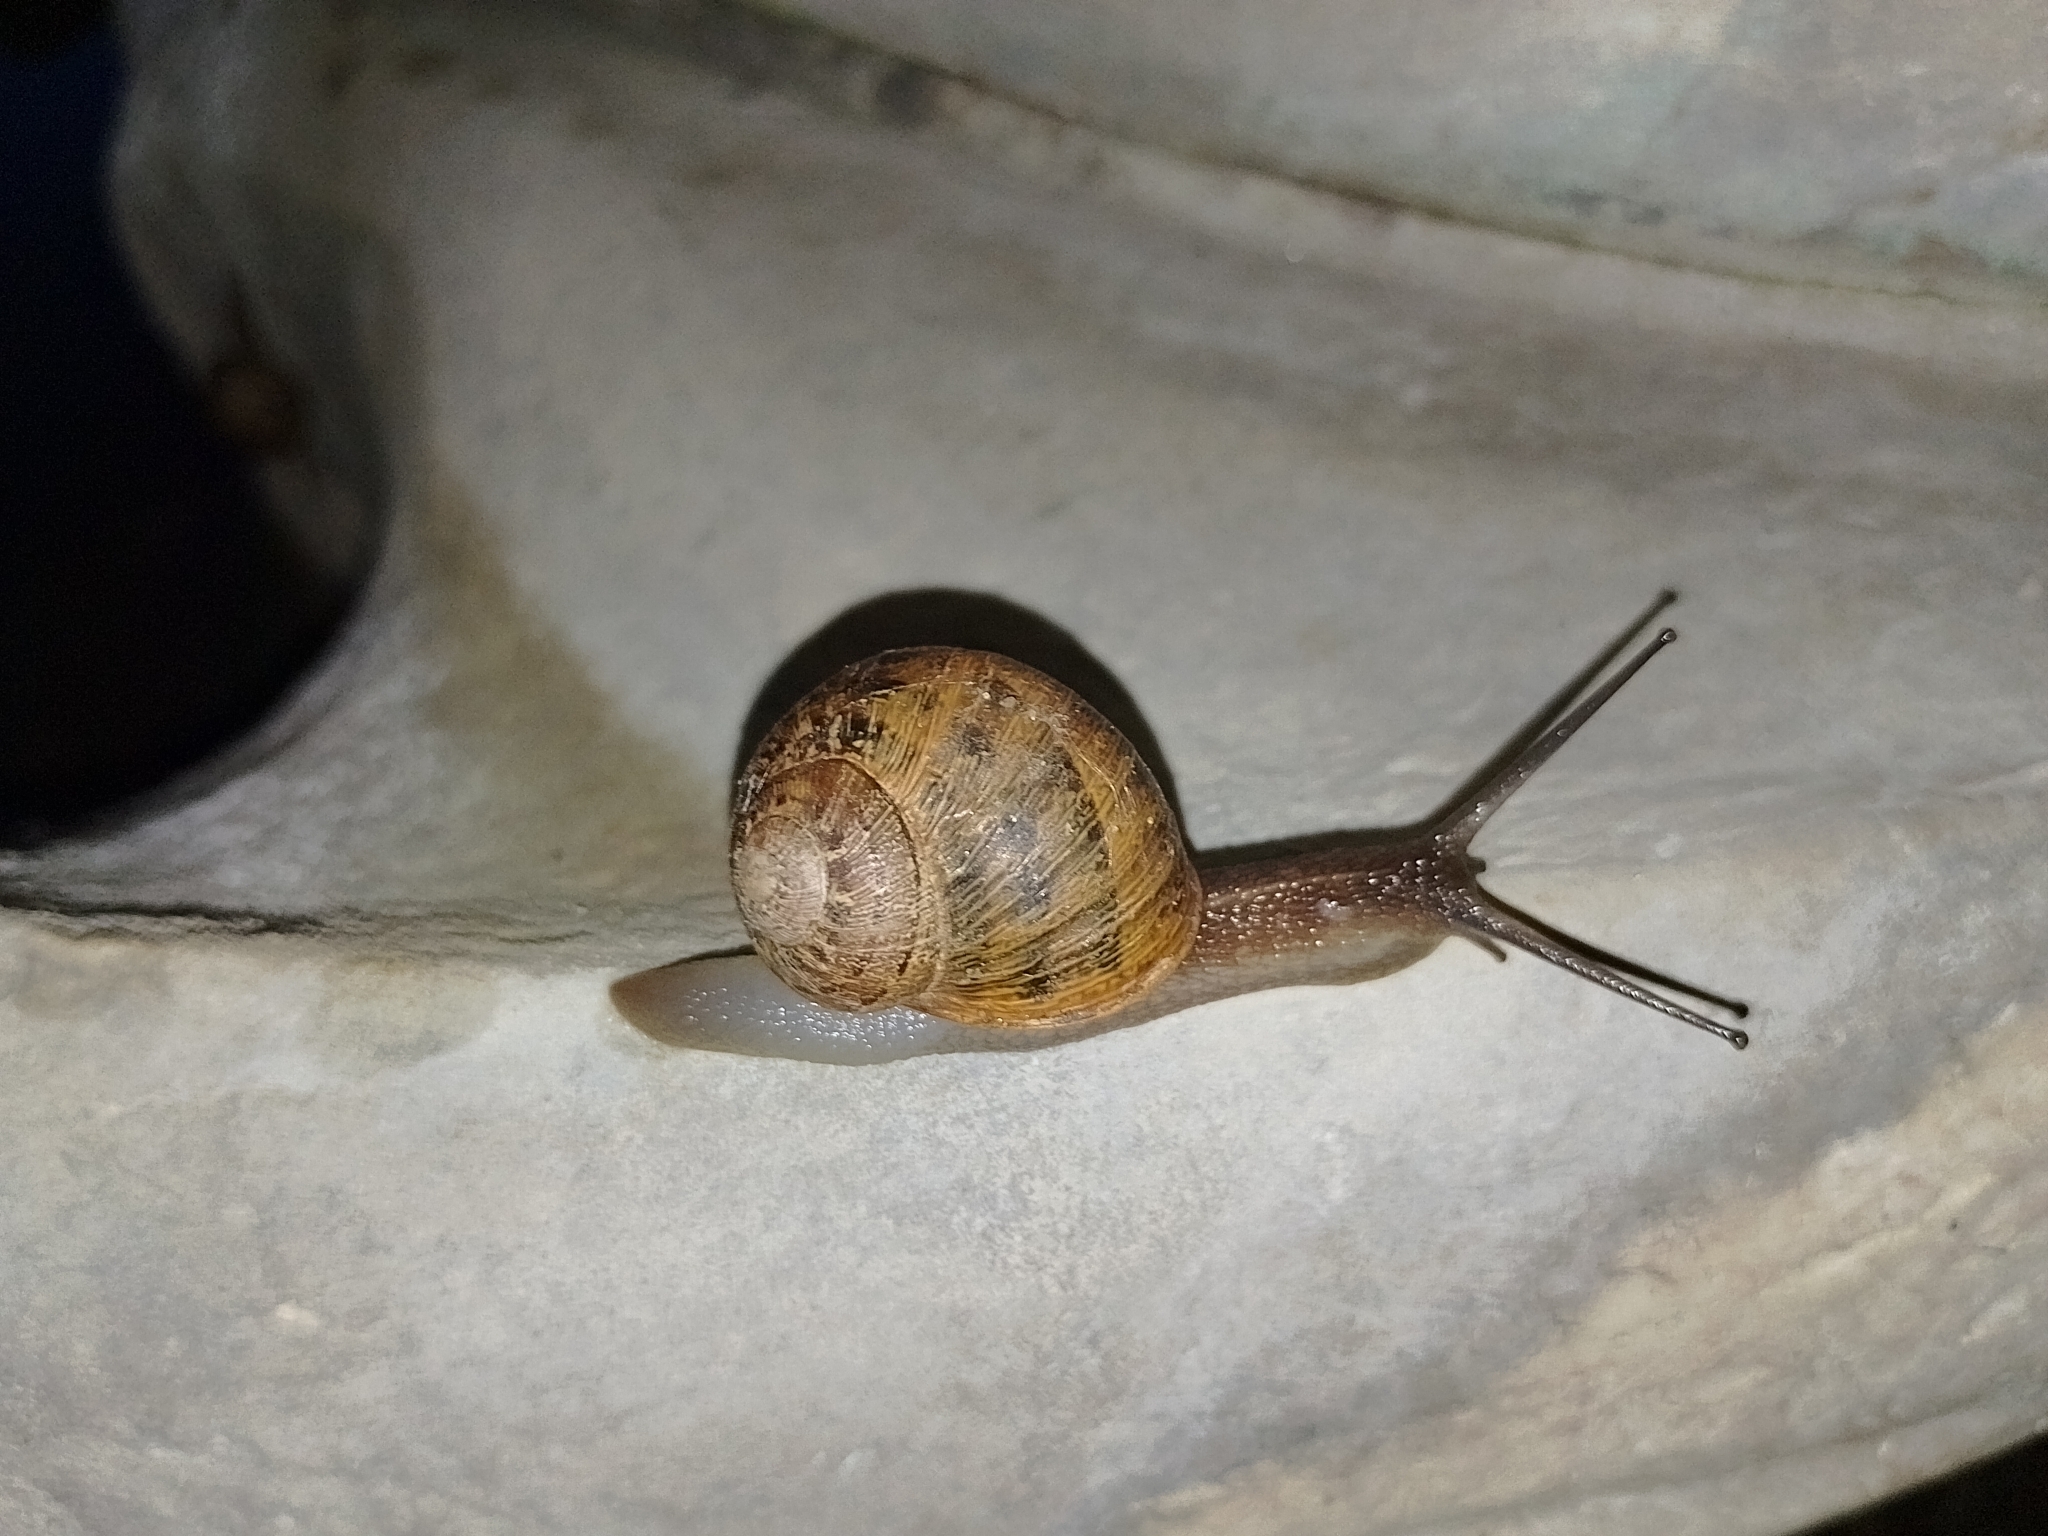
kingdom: Animalia
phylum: Mollusca
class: Gastropoda
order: Stylommatophora
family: Helicidae
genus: Cornu
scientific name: Cornu aspersum
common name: Brown garden snail
